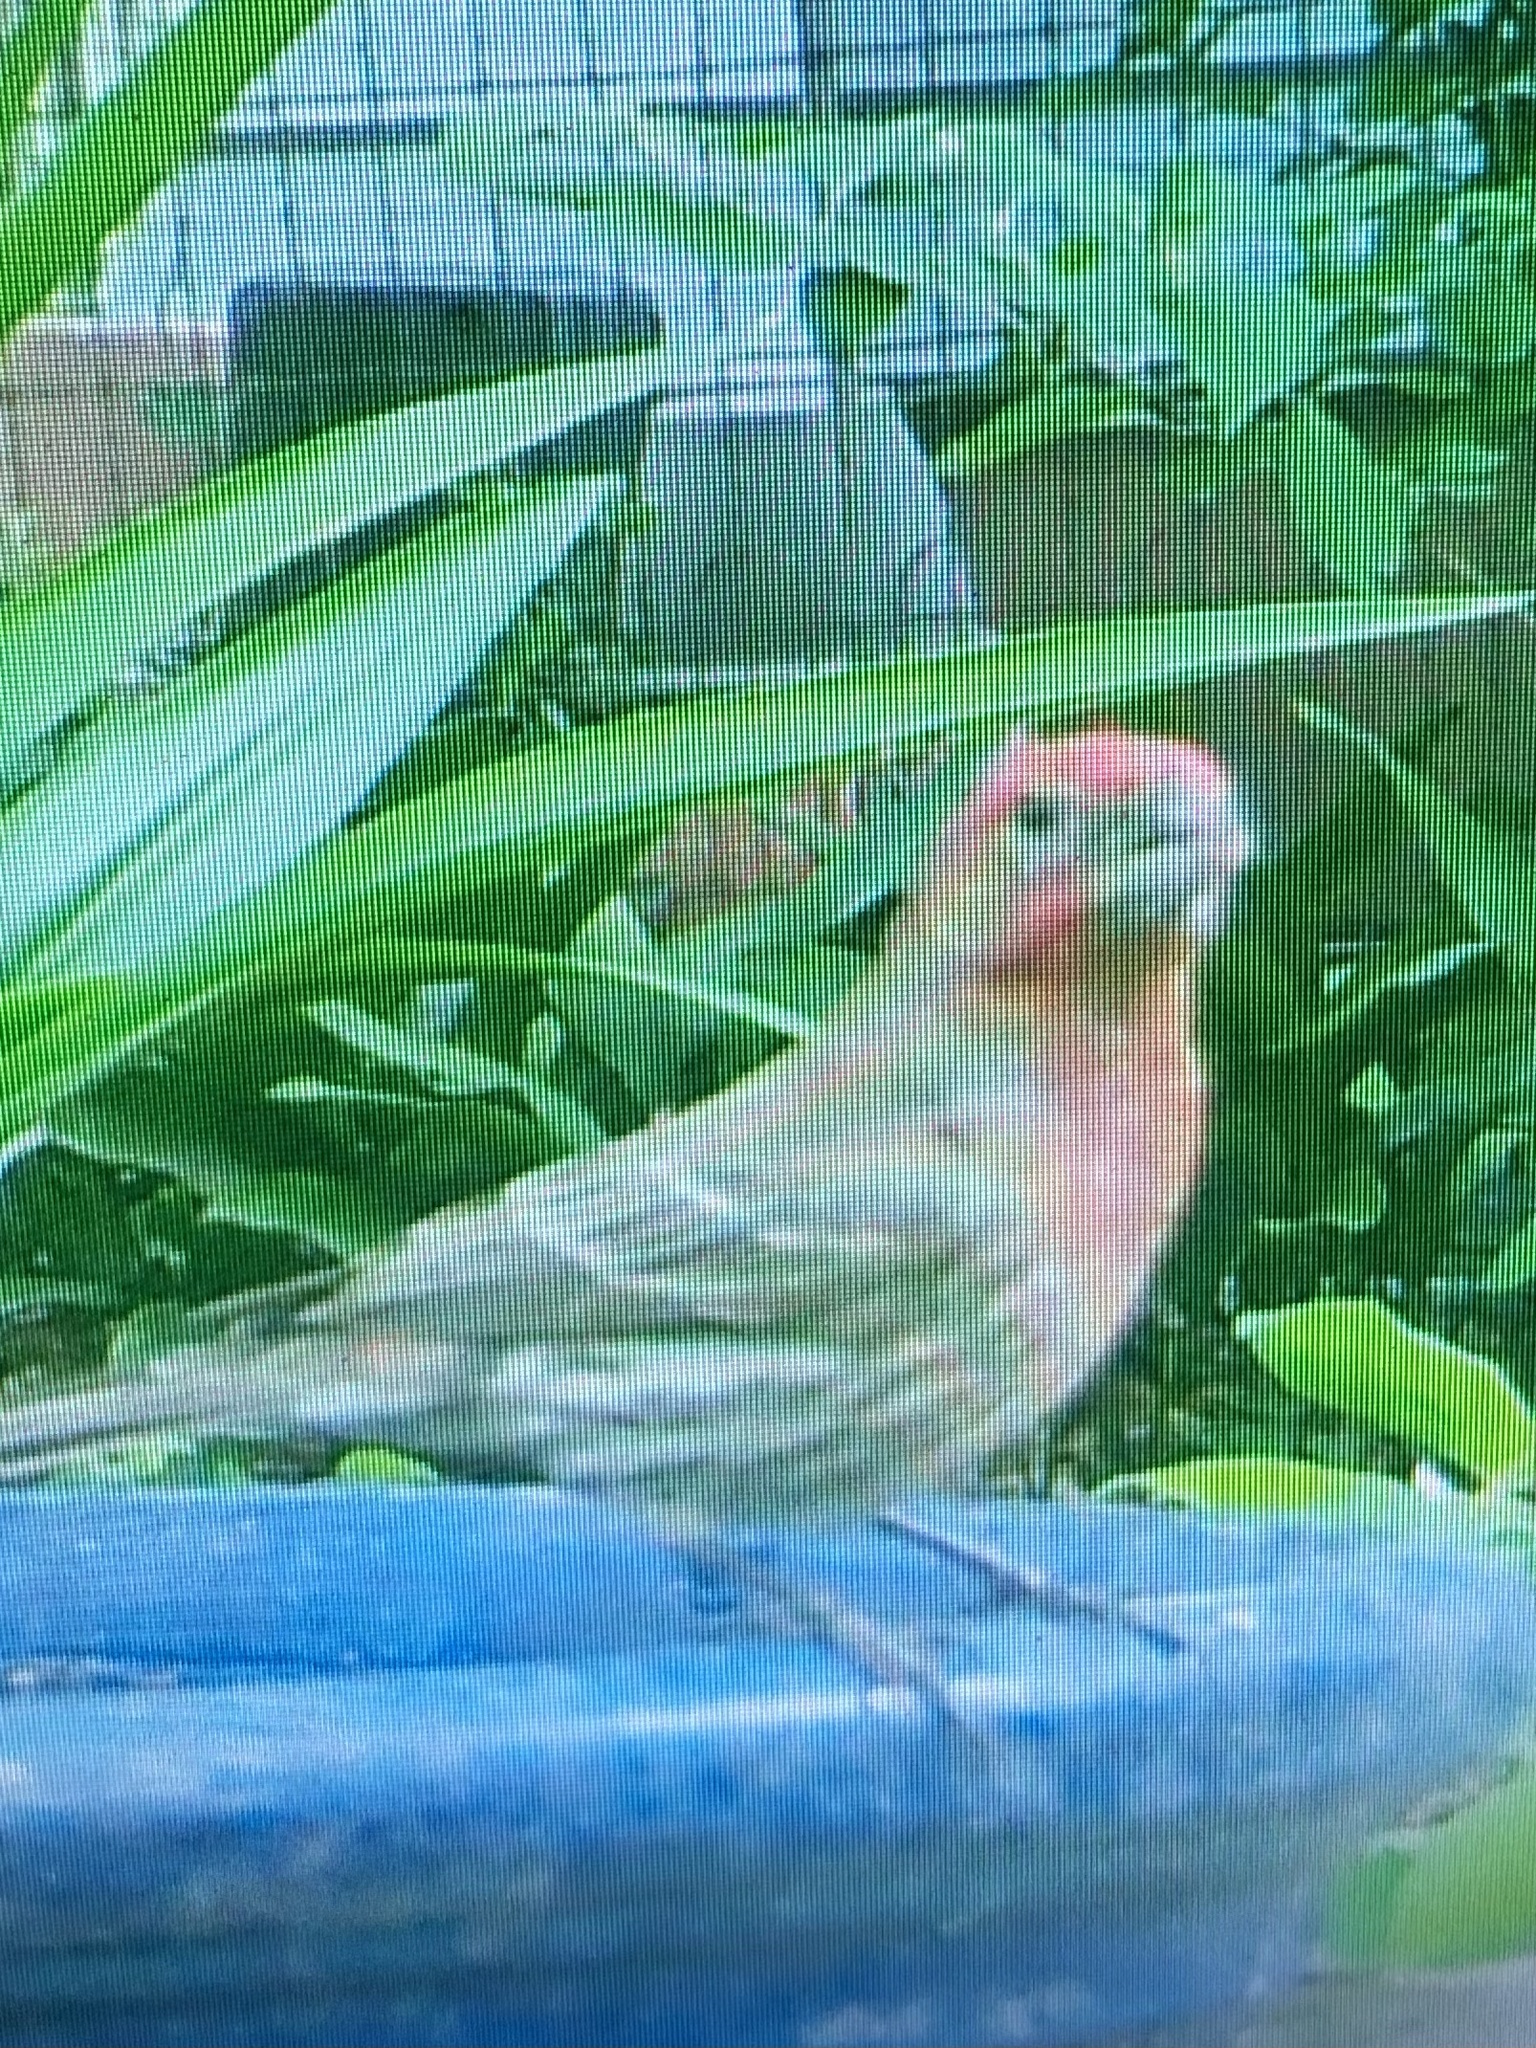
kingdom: Animalia
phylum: Chordata
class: Aves
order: Passeriformes
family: Fringillidae
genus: Haemorhous
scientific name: Haemorhous mexicanus
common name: House finch
